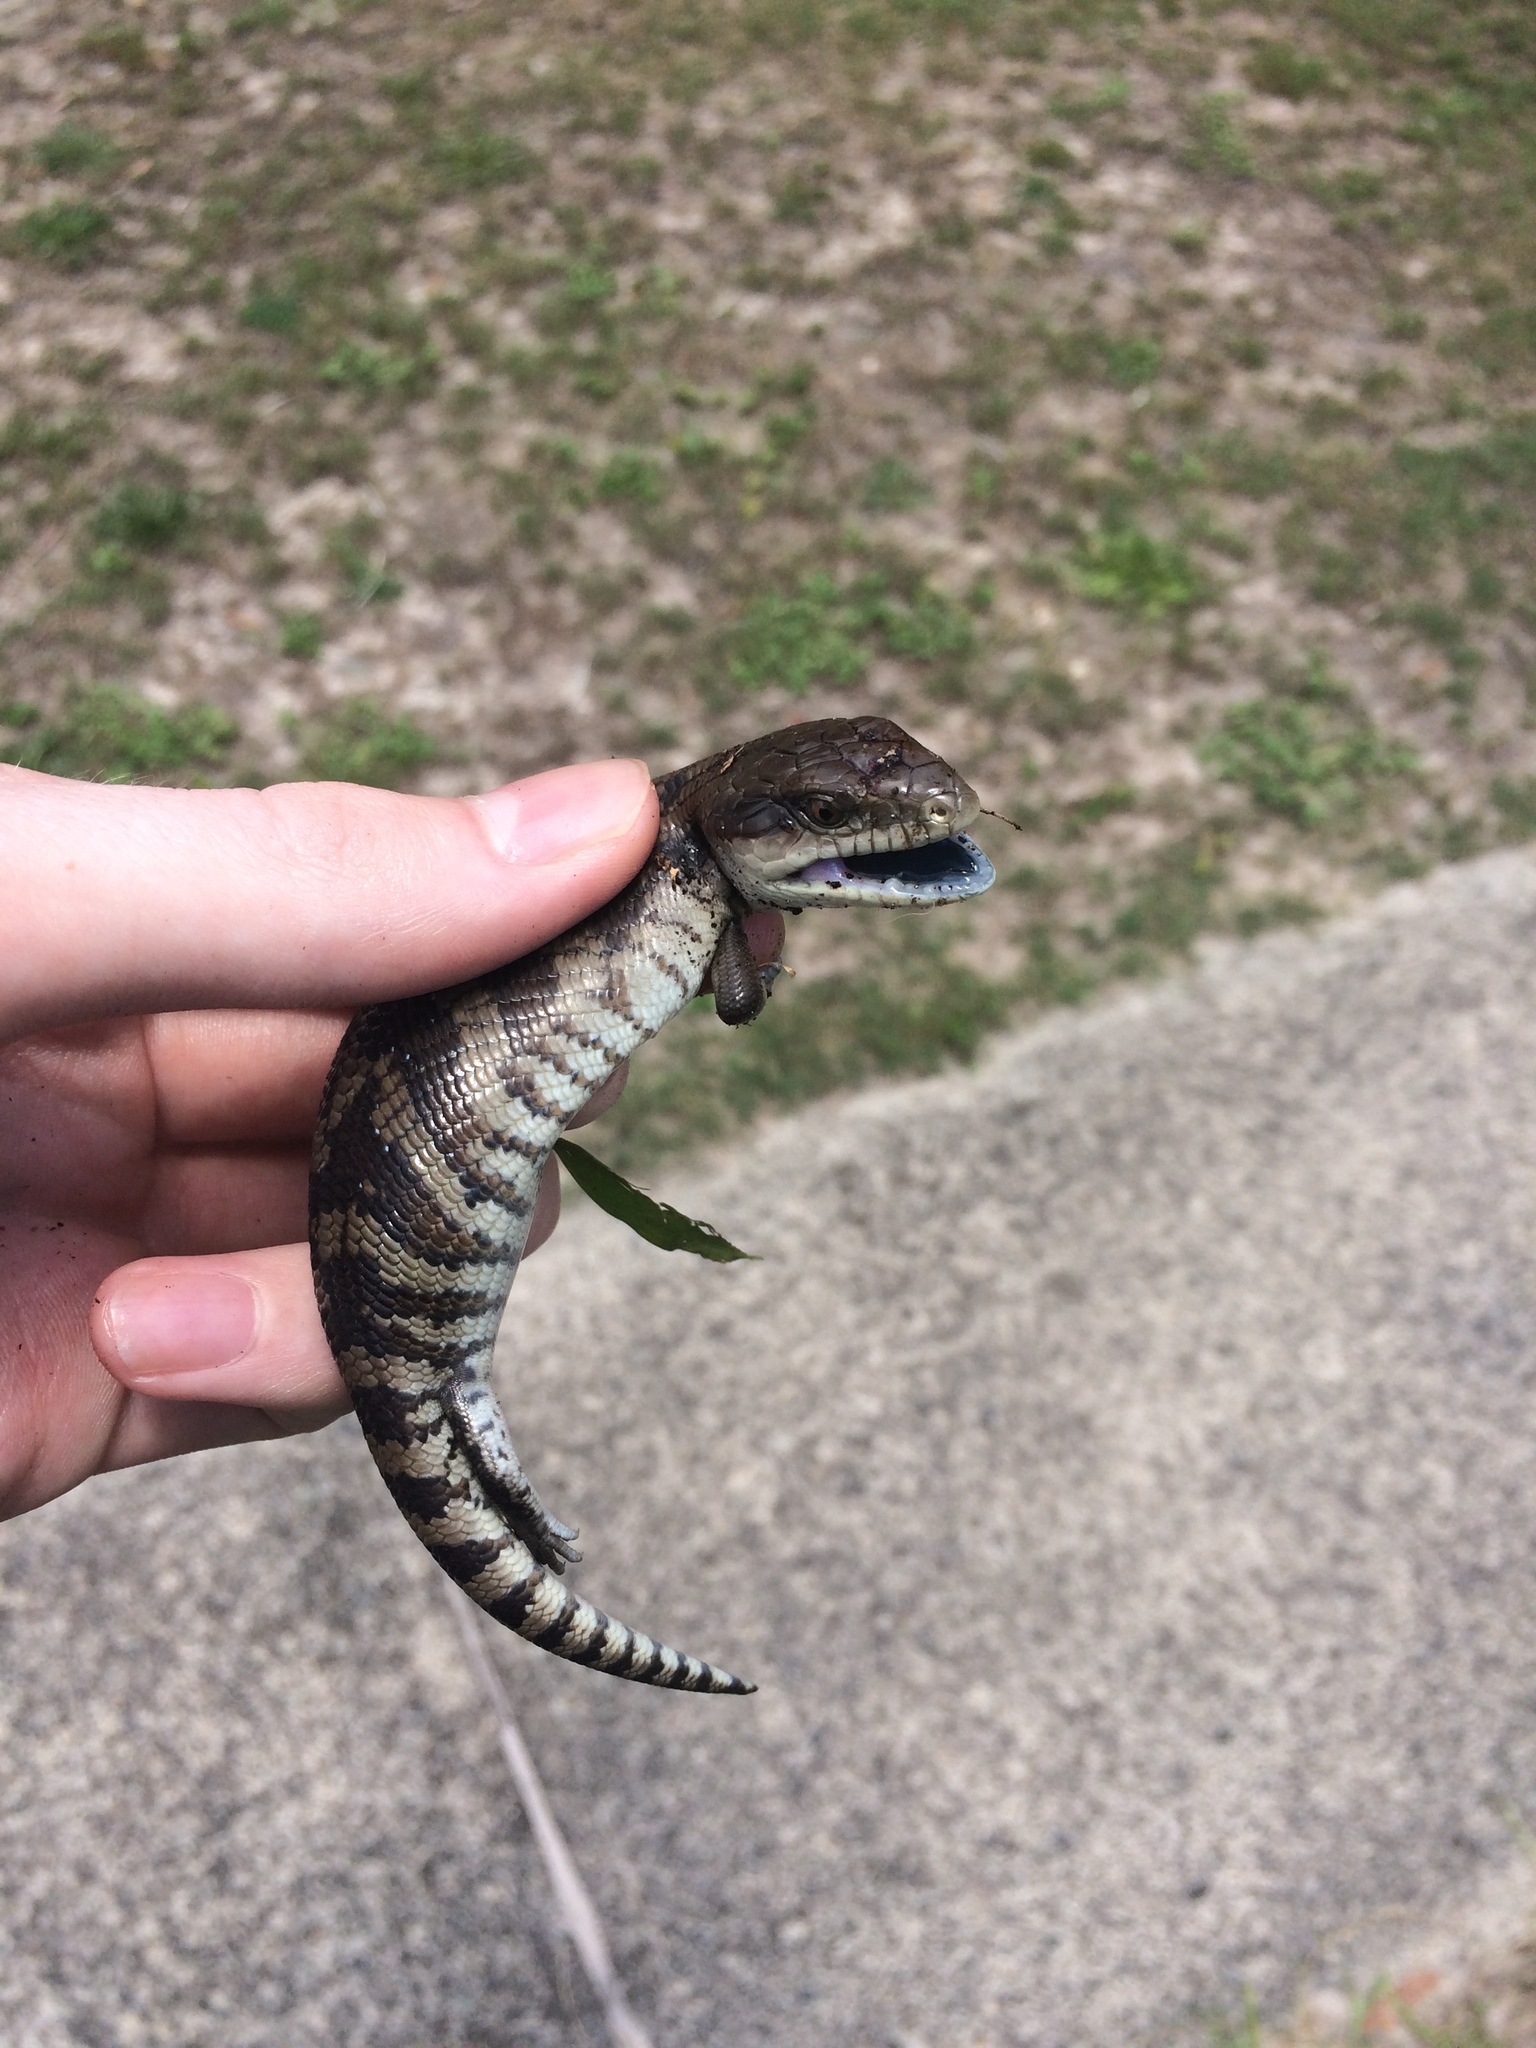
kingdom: Animalia
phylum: Chordata
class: Squamata
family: Scincidae
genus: Tiliqua
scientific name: Tiliqua scincoides
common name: Common bluetongue
